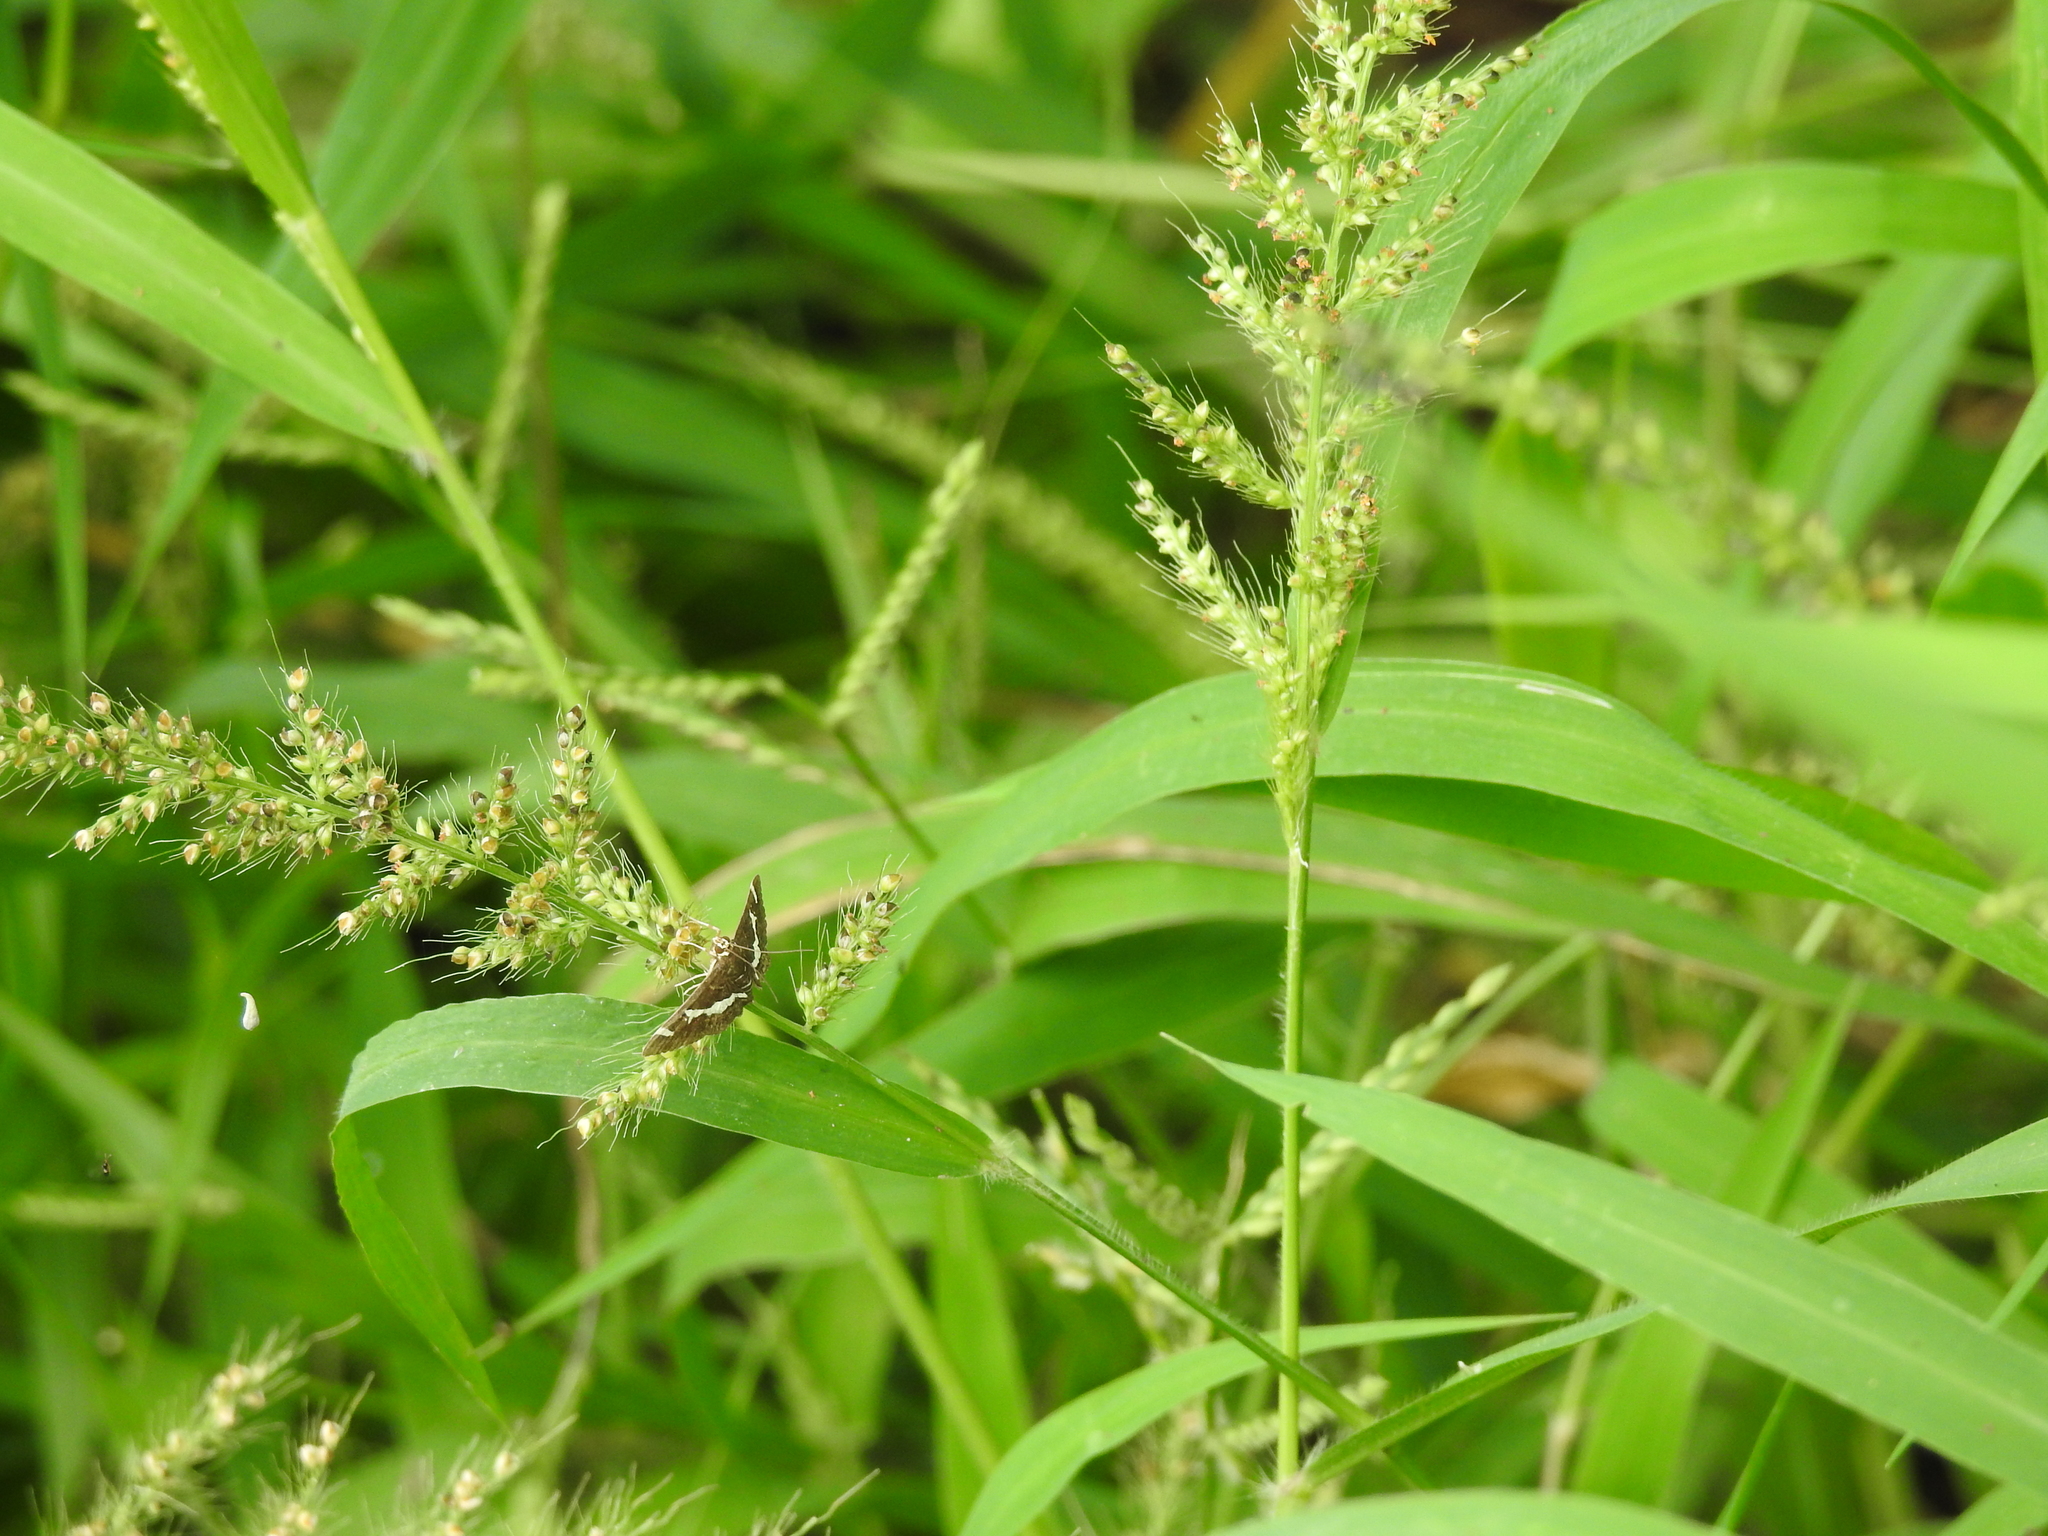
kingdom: Animalia
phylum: Arthropoda
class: Insecta
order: Lepidoptera
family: Crambidae
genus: Spoladea
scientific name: Spoladea recurvalis
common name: Beet webworm moth
